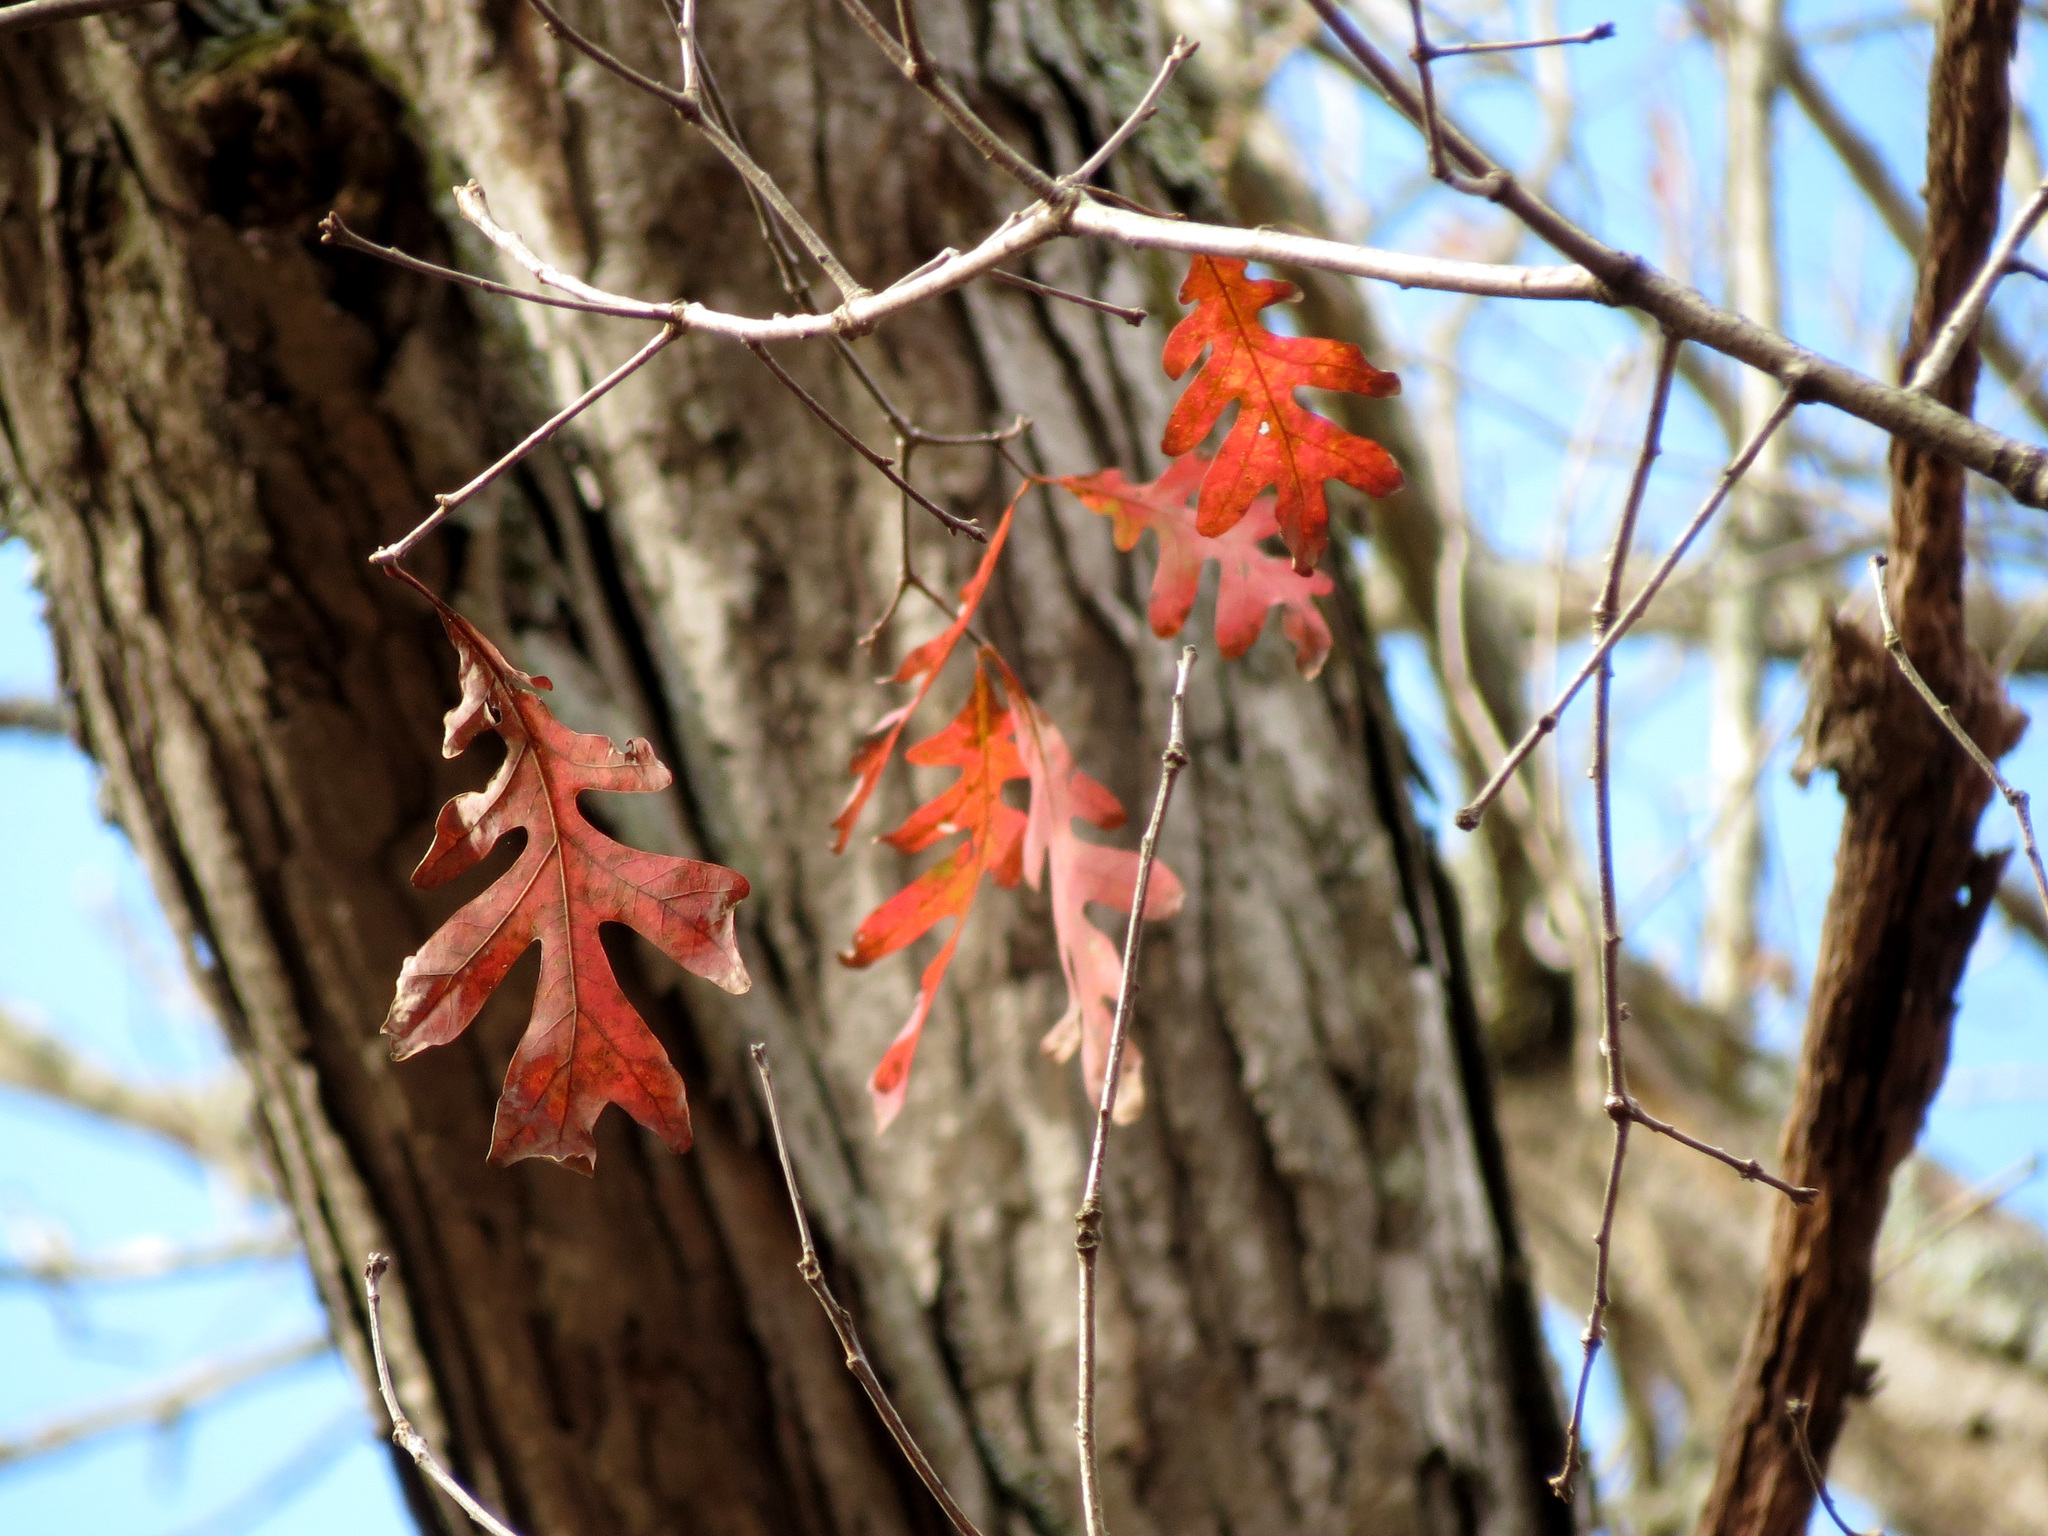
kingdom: Plantae
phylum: Tracheophyta
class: Magnoliopsida
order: Fagales
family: Fagaceae
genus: Quercus
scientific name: Quercus alba
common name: White oak
